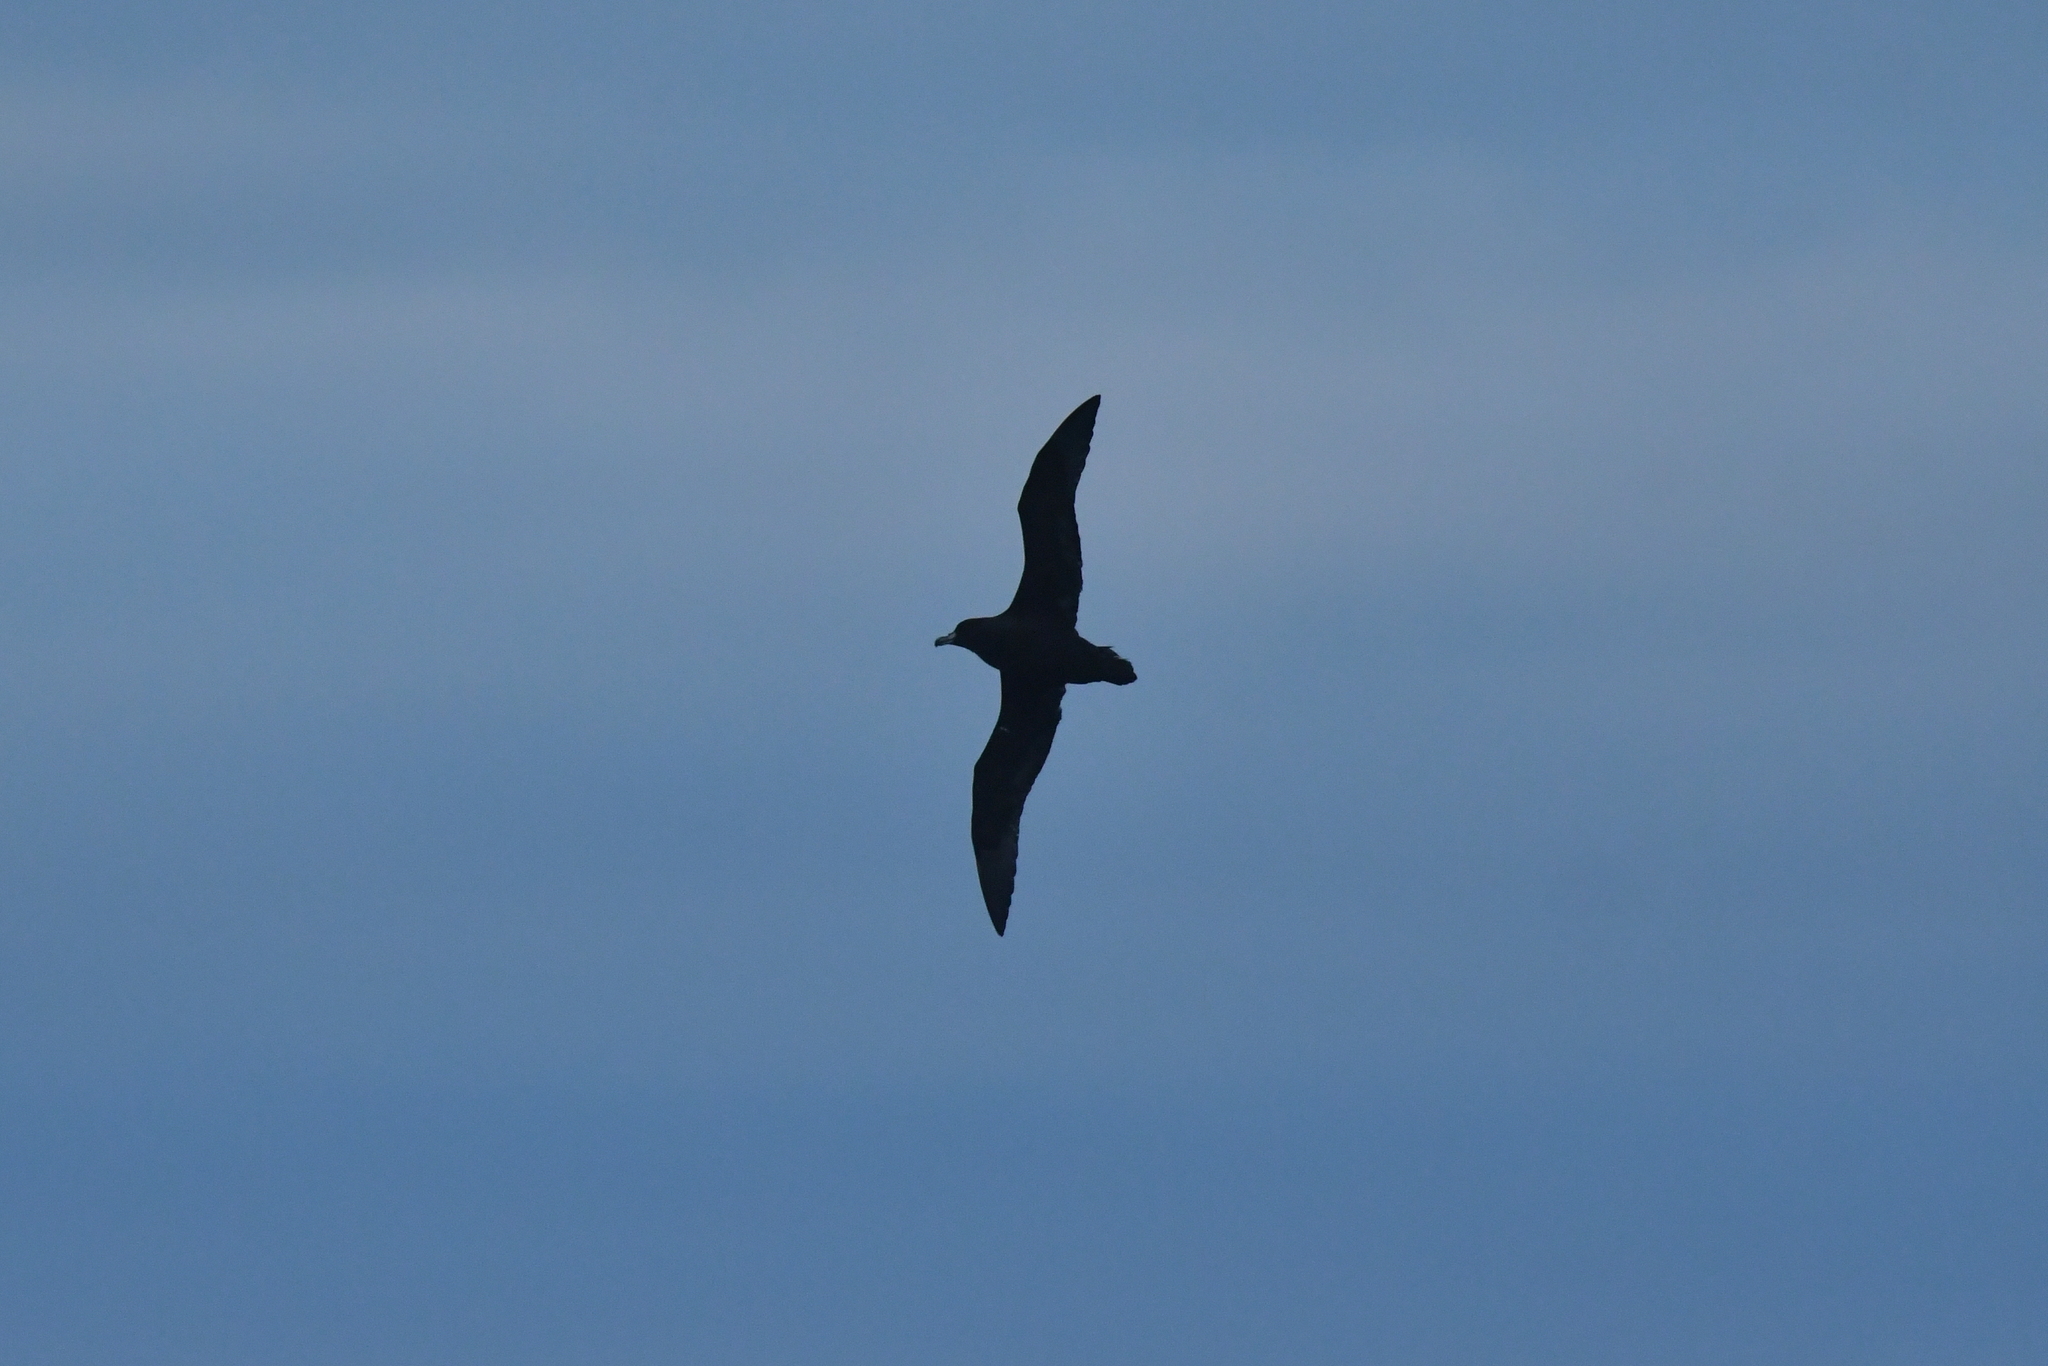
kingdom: Animalia
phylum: Chordata
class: Aves
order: Procellariiformes
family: Procellariidae
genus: Procellaria
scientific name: Procellaria westlandica
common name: Westland petrel
